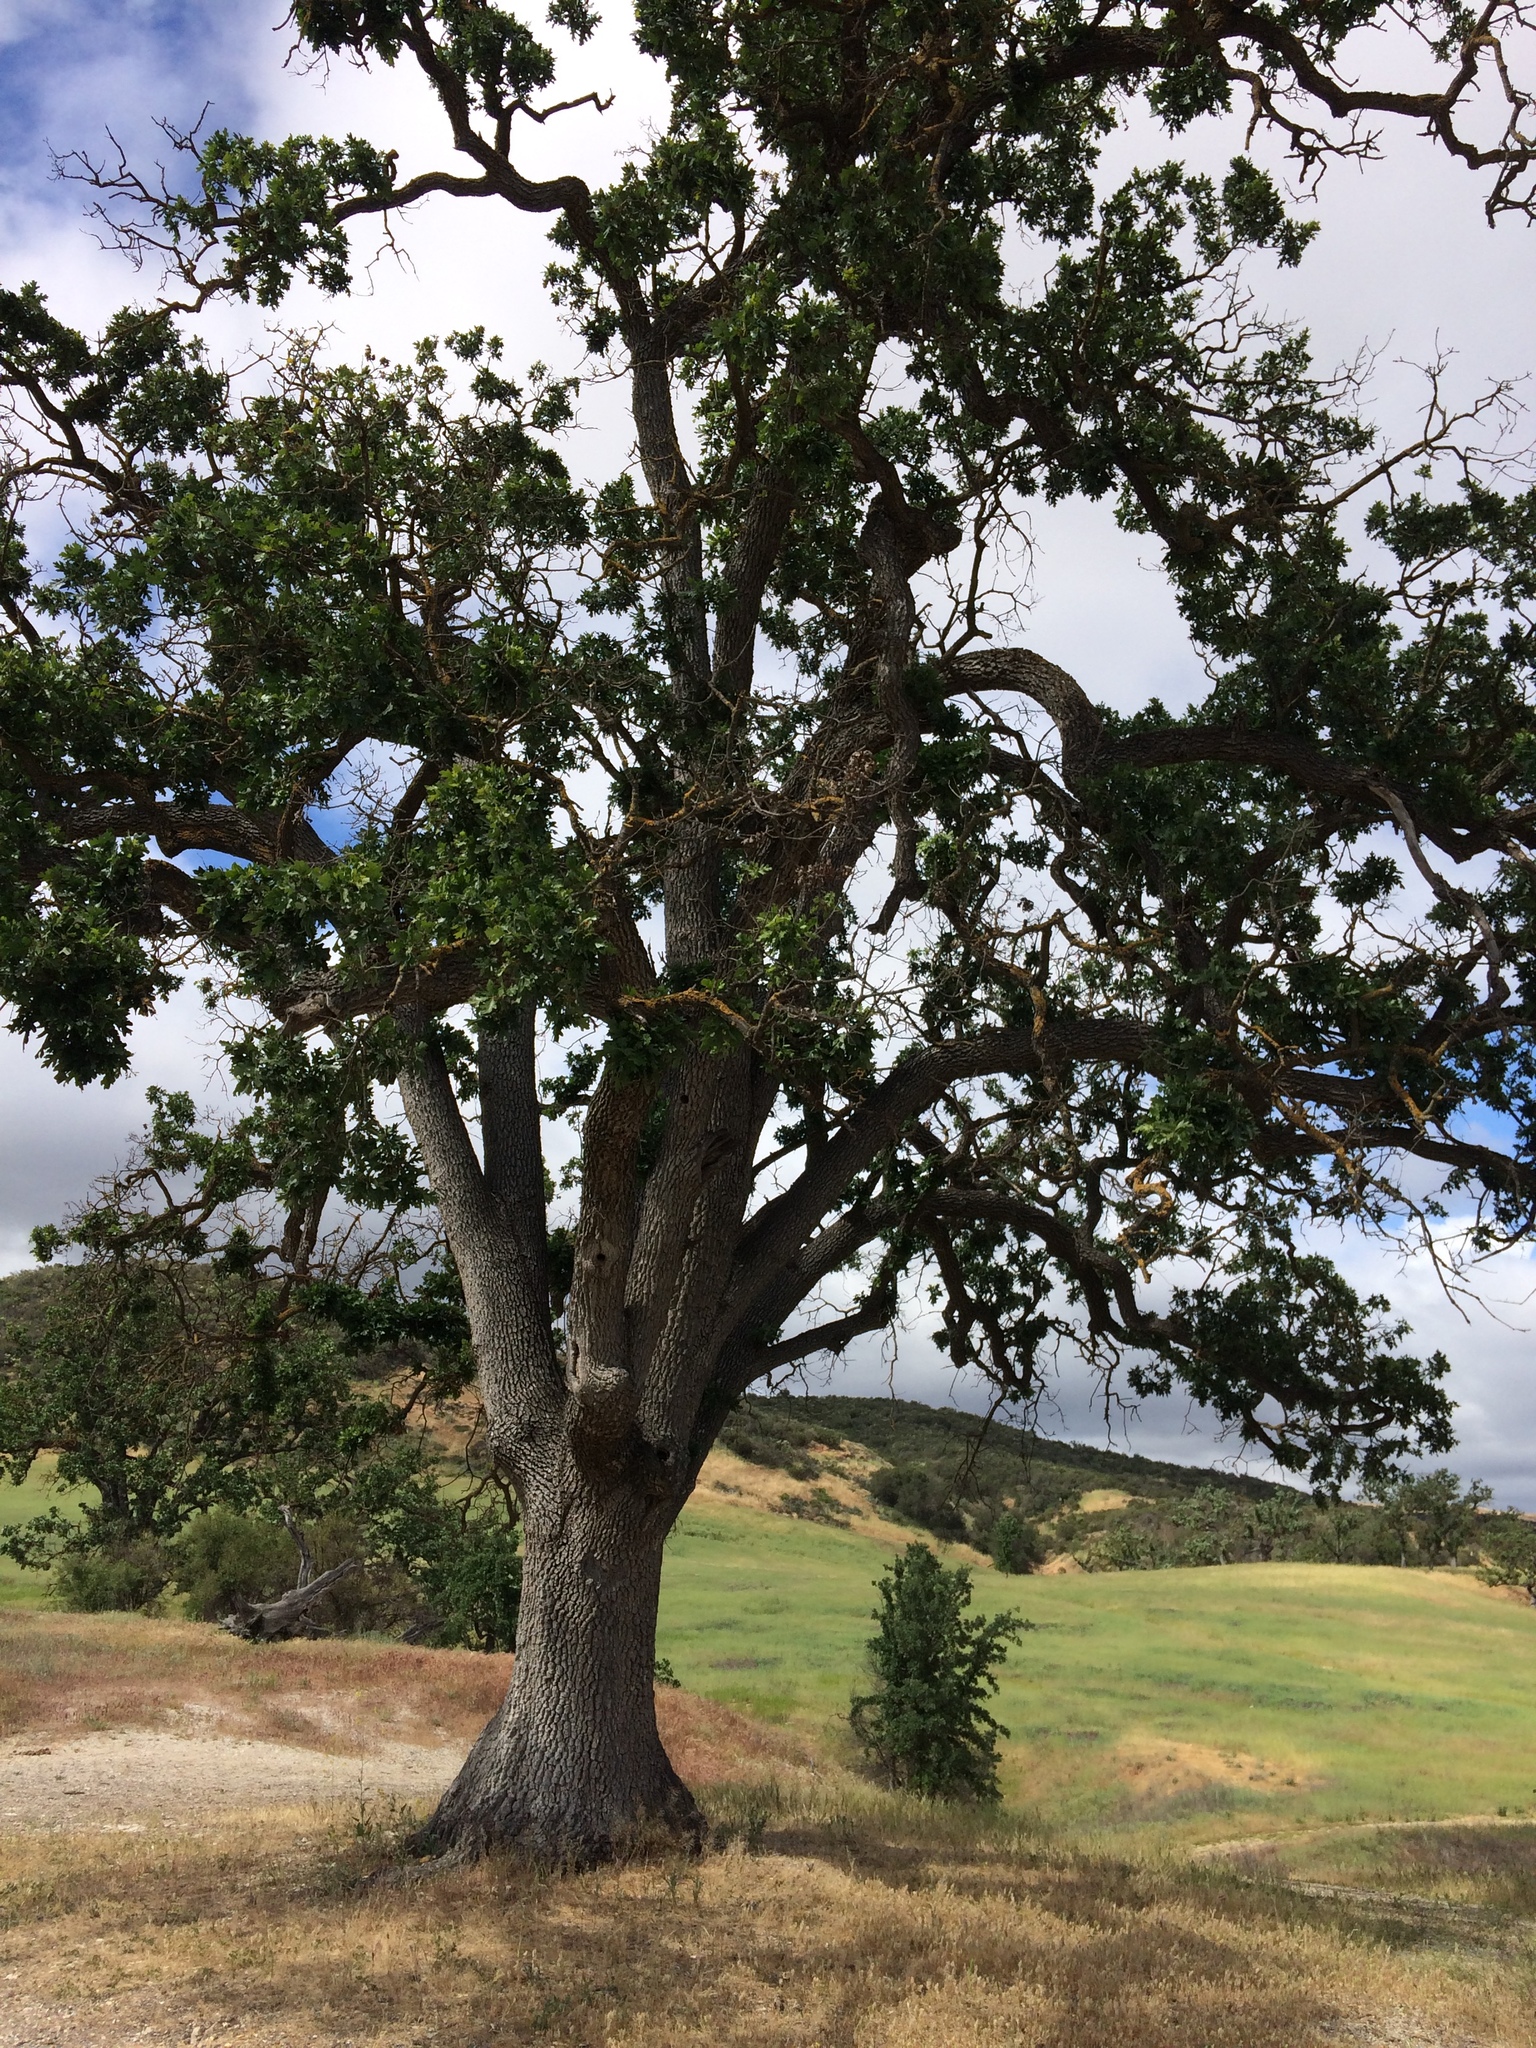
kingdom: Plantae
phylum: Tracheophyta
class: Magnoliopsida
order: Fagales
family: Fagaceae
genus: Quercus
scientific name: Quercus lobata
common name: Valley oak
